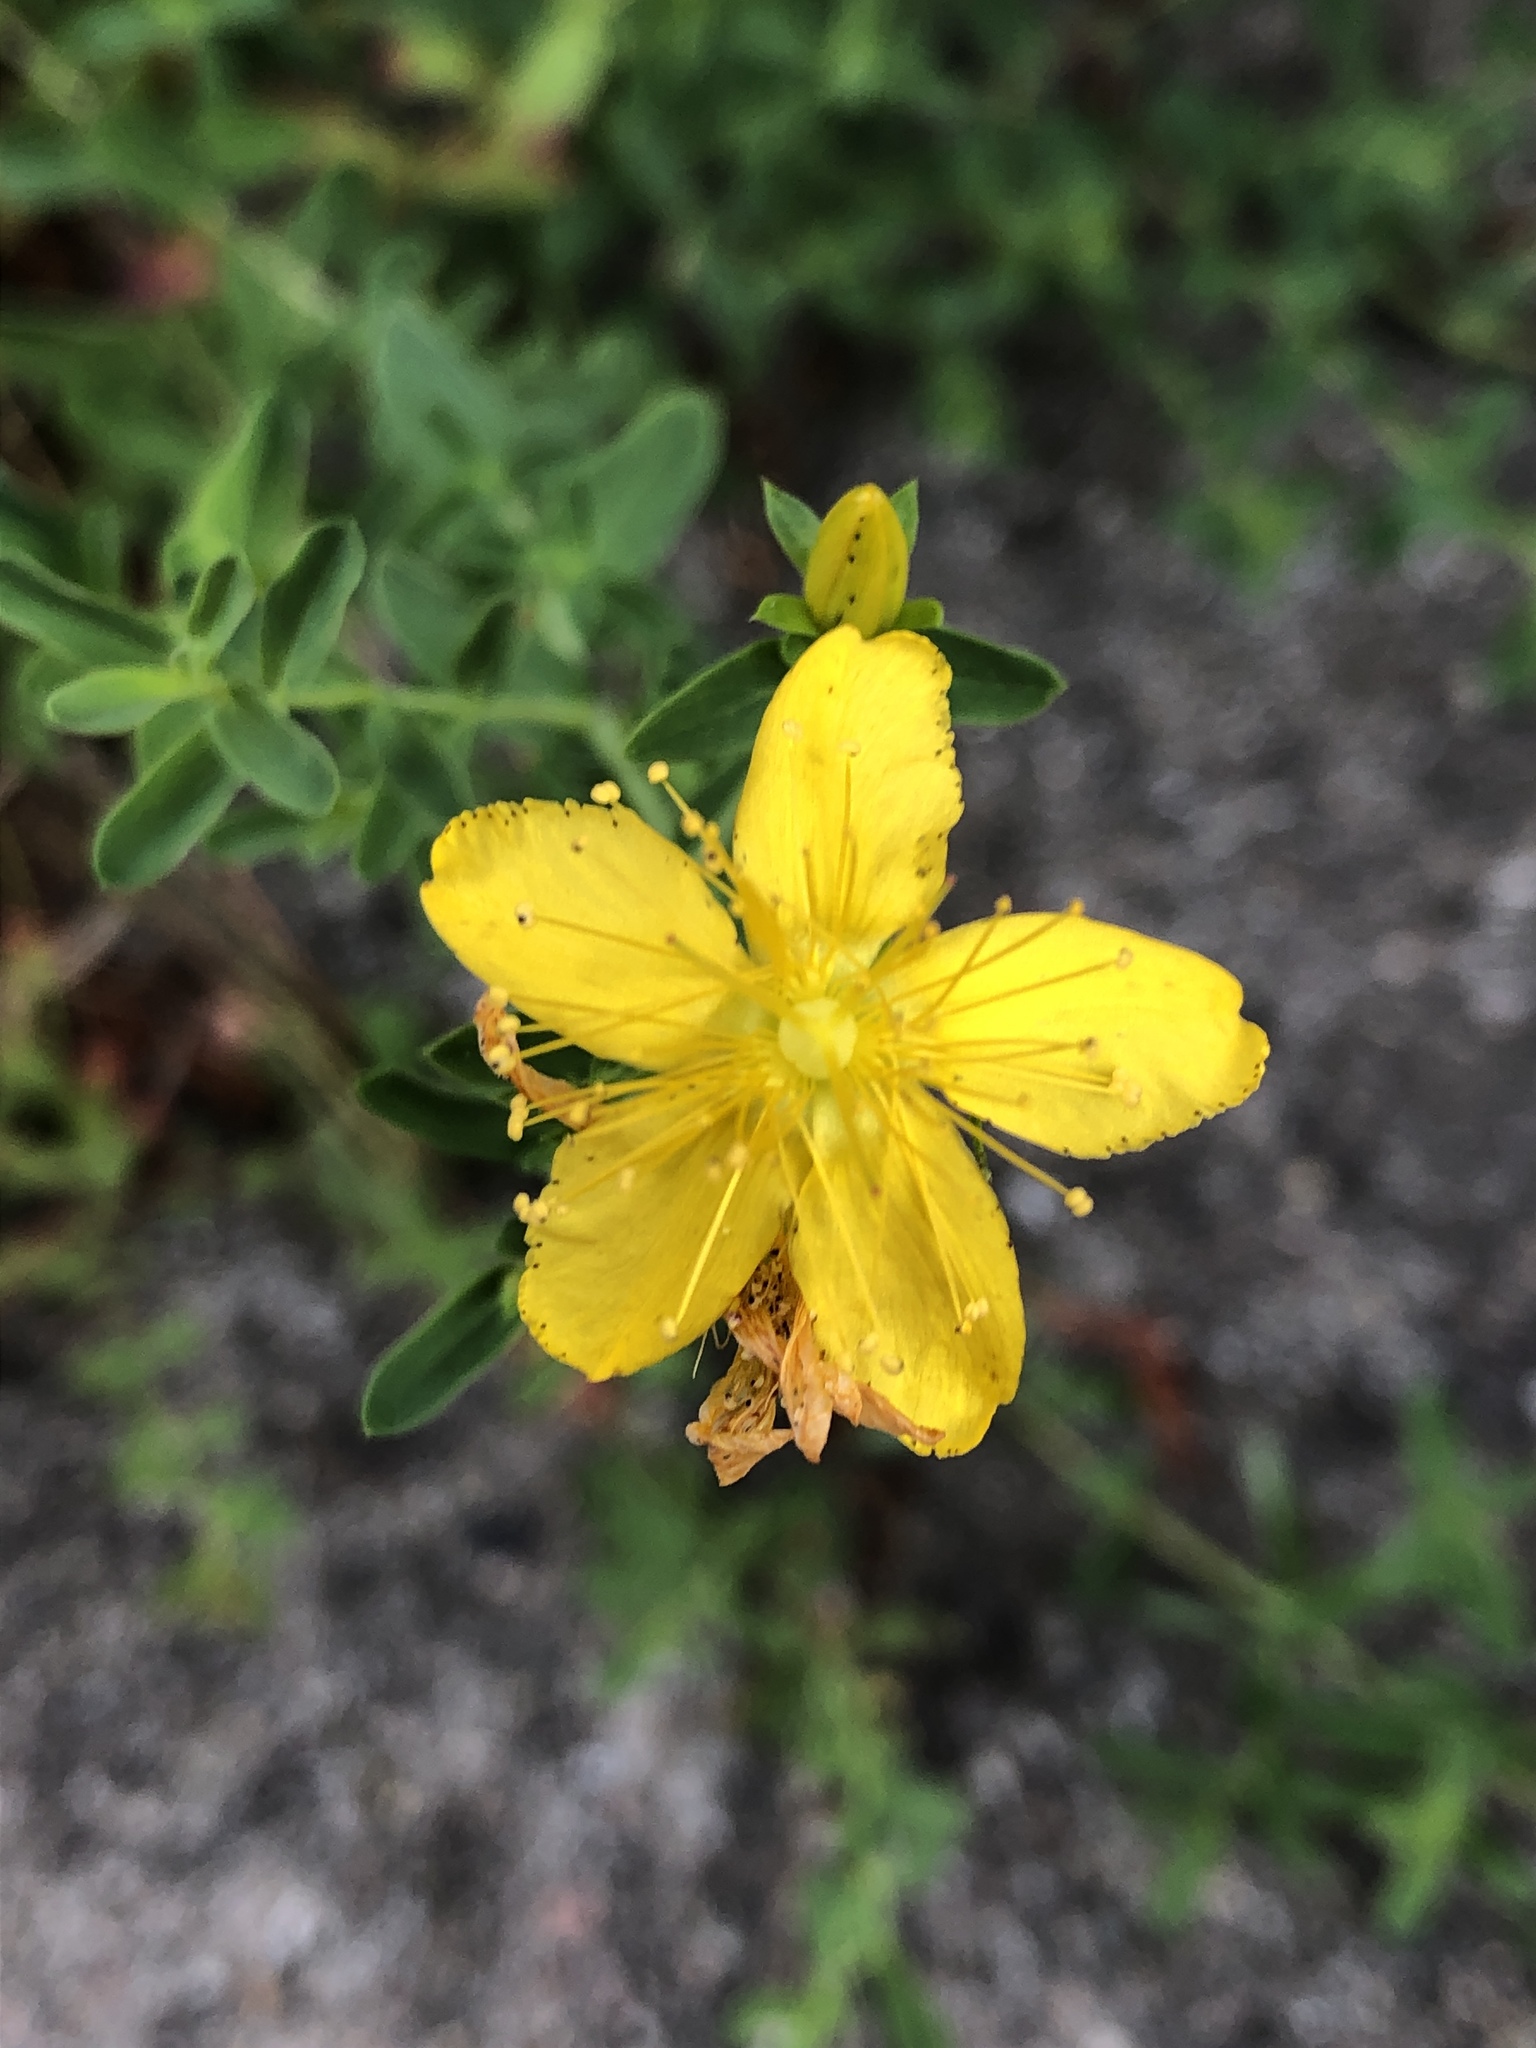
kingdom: Plantae
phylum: Tracheophyta
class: Magnoliopsida
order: Malpighiales
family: Hypericaceae
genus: Hypericum
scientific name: Hypericum perforatum
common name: Common st. johnswort
